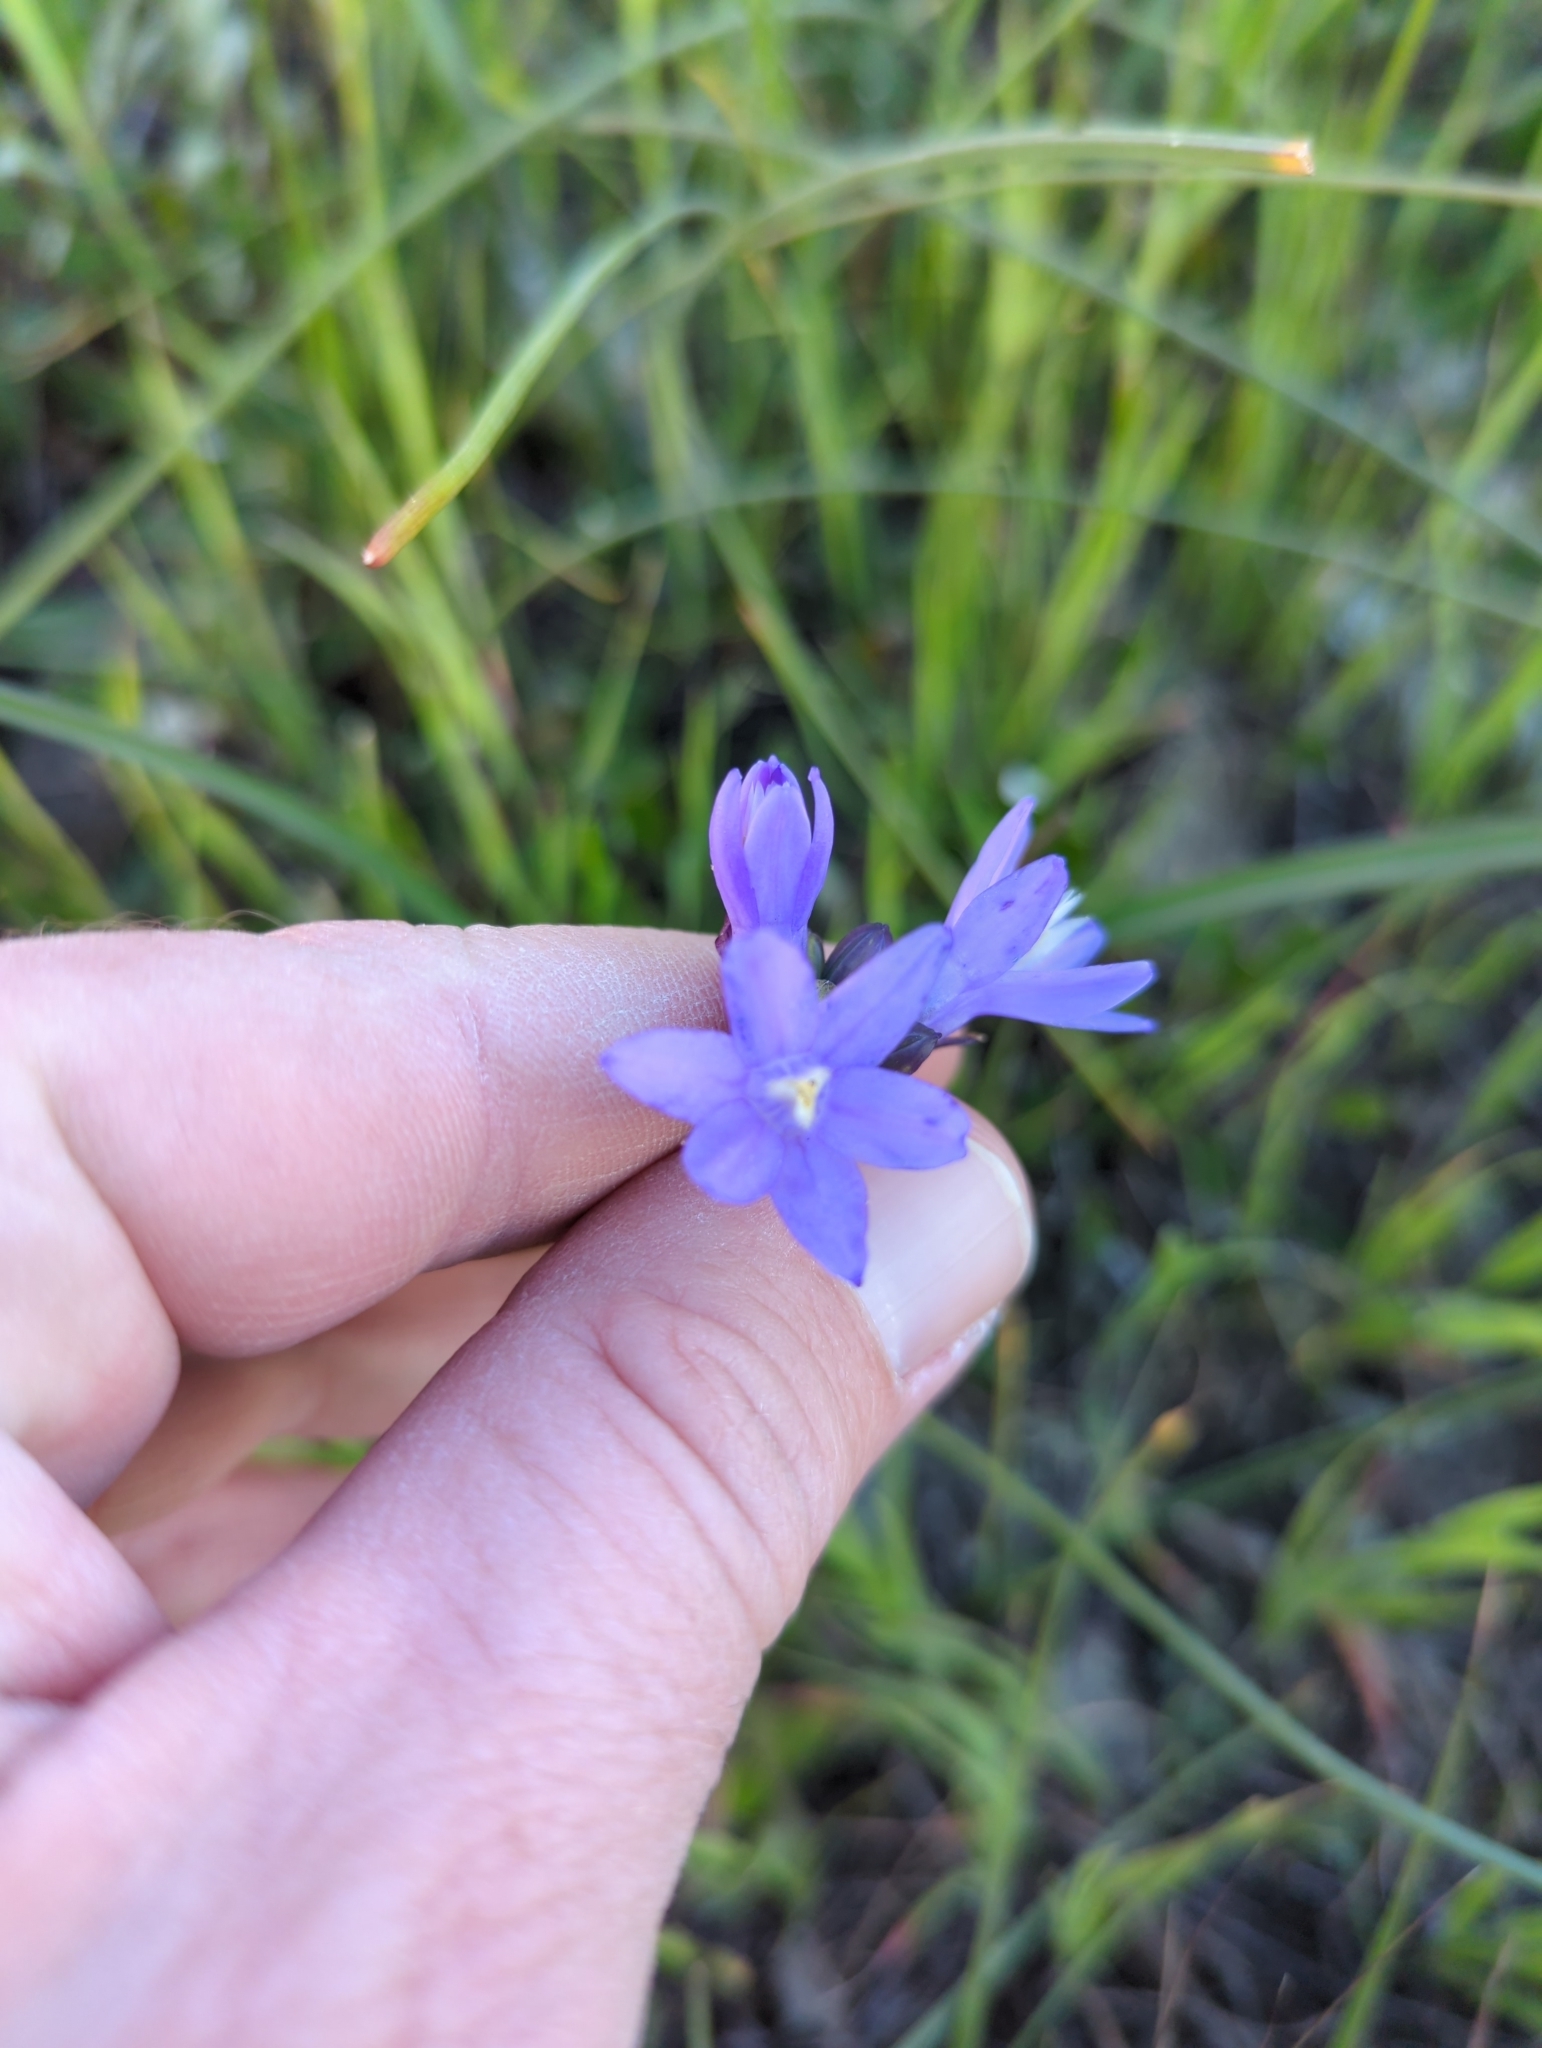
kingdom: Plantae
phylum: Tracheophyta
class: Liliopsida
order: Asparagales
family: Asparagaceae
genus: Dipterostemon
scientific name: Dipterostemon capitatus
